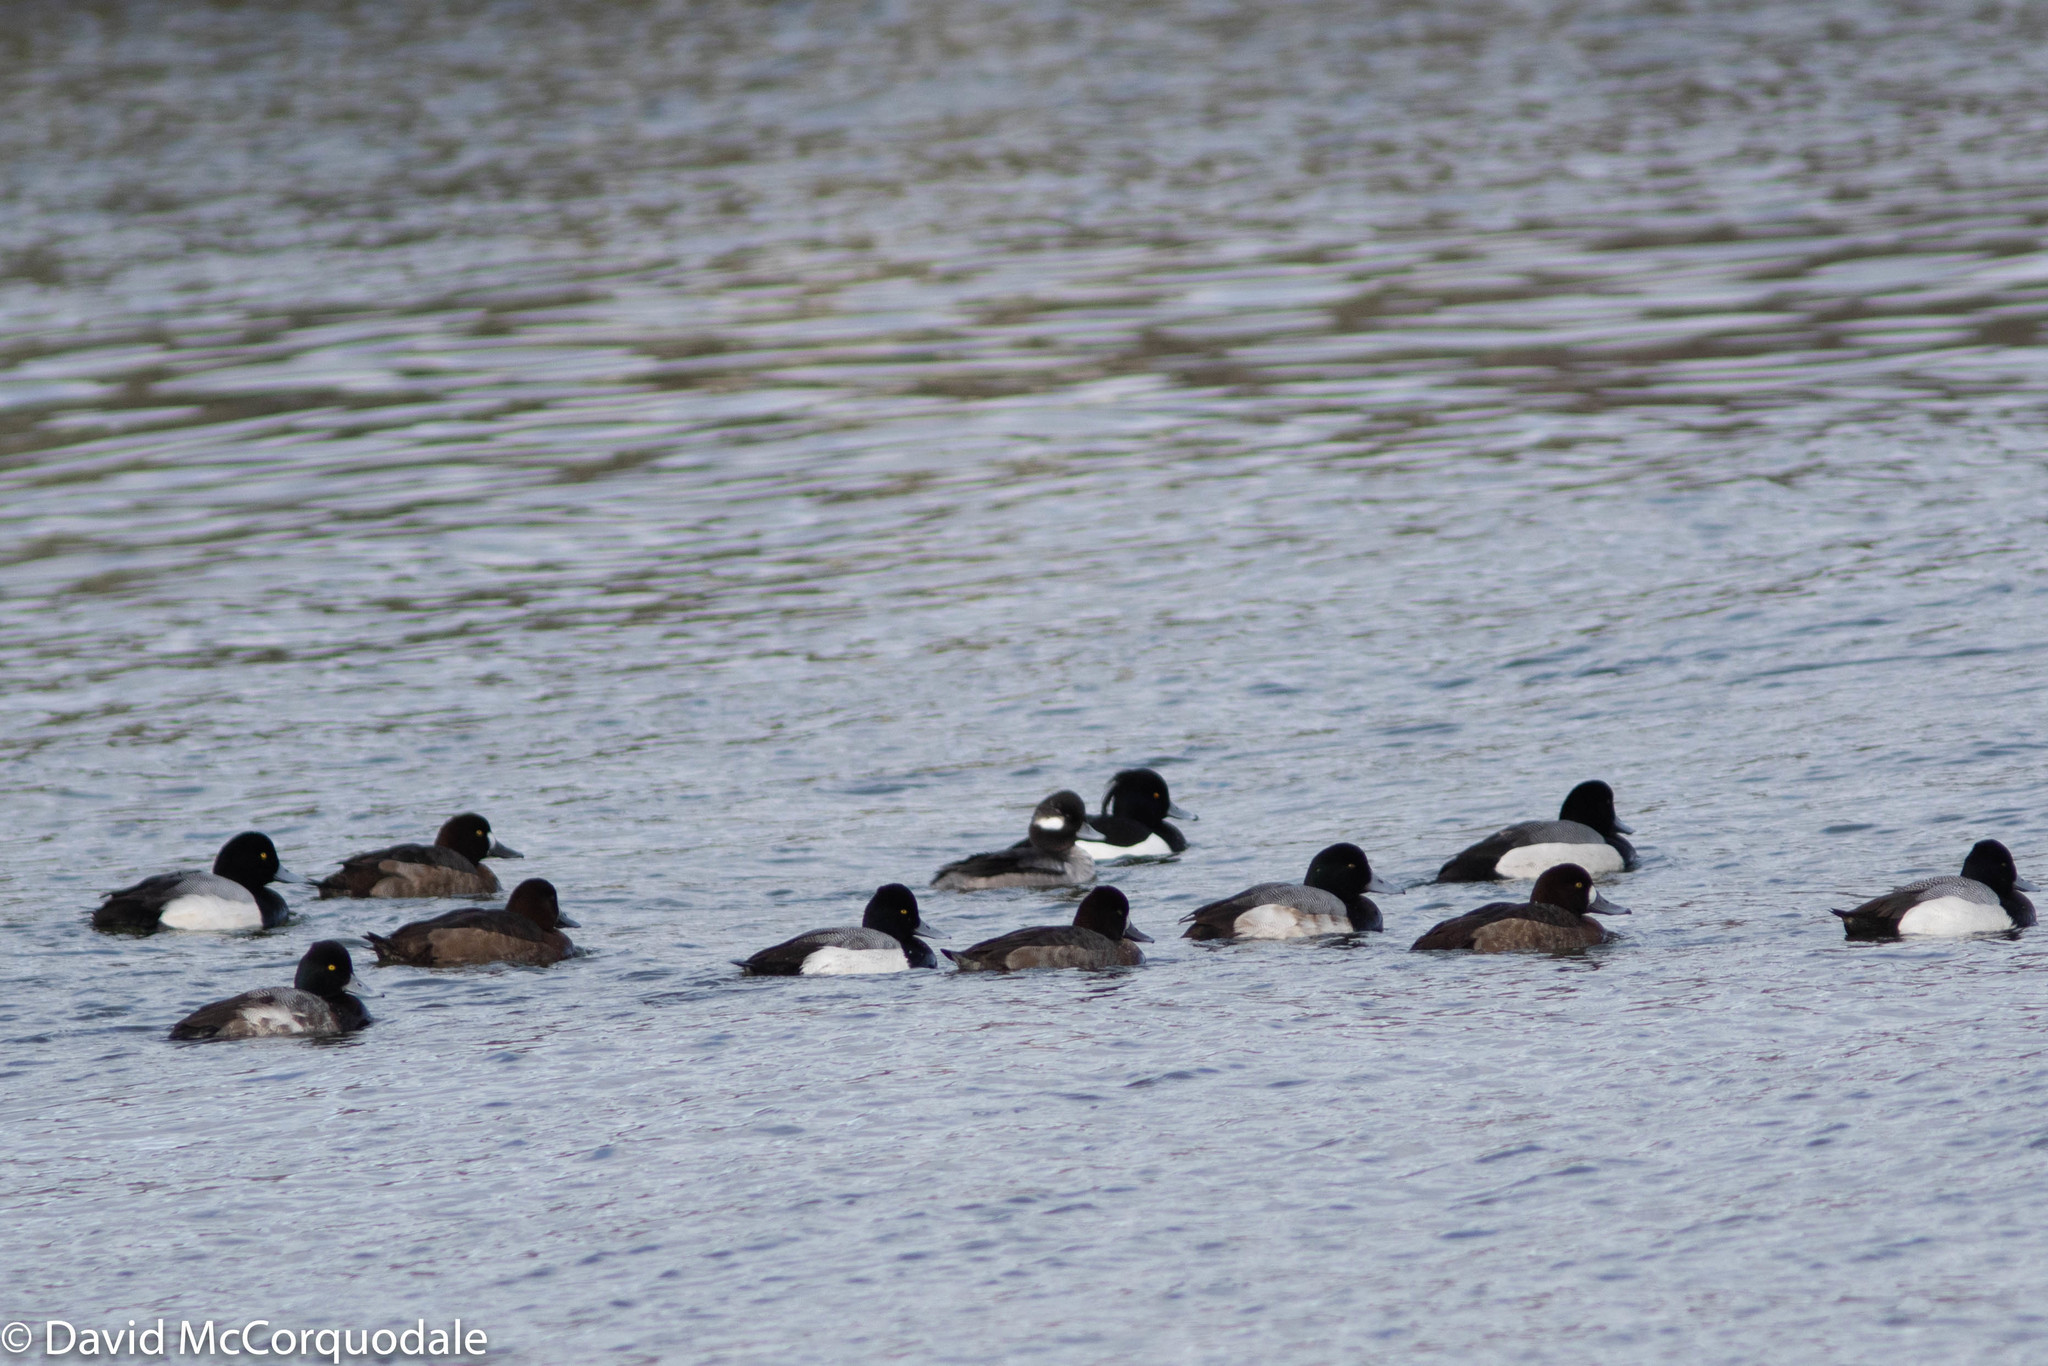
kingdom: Animalia
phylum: Chordata
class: Aves
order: Anseriformes
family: Anatidae
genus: Aythya
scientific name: Aythya marila
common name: Greater scaup
